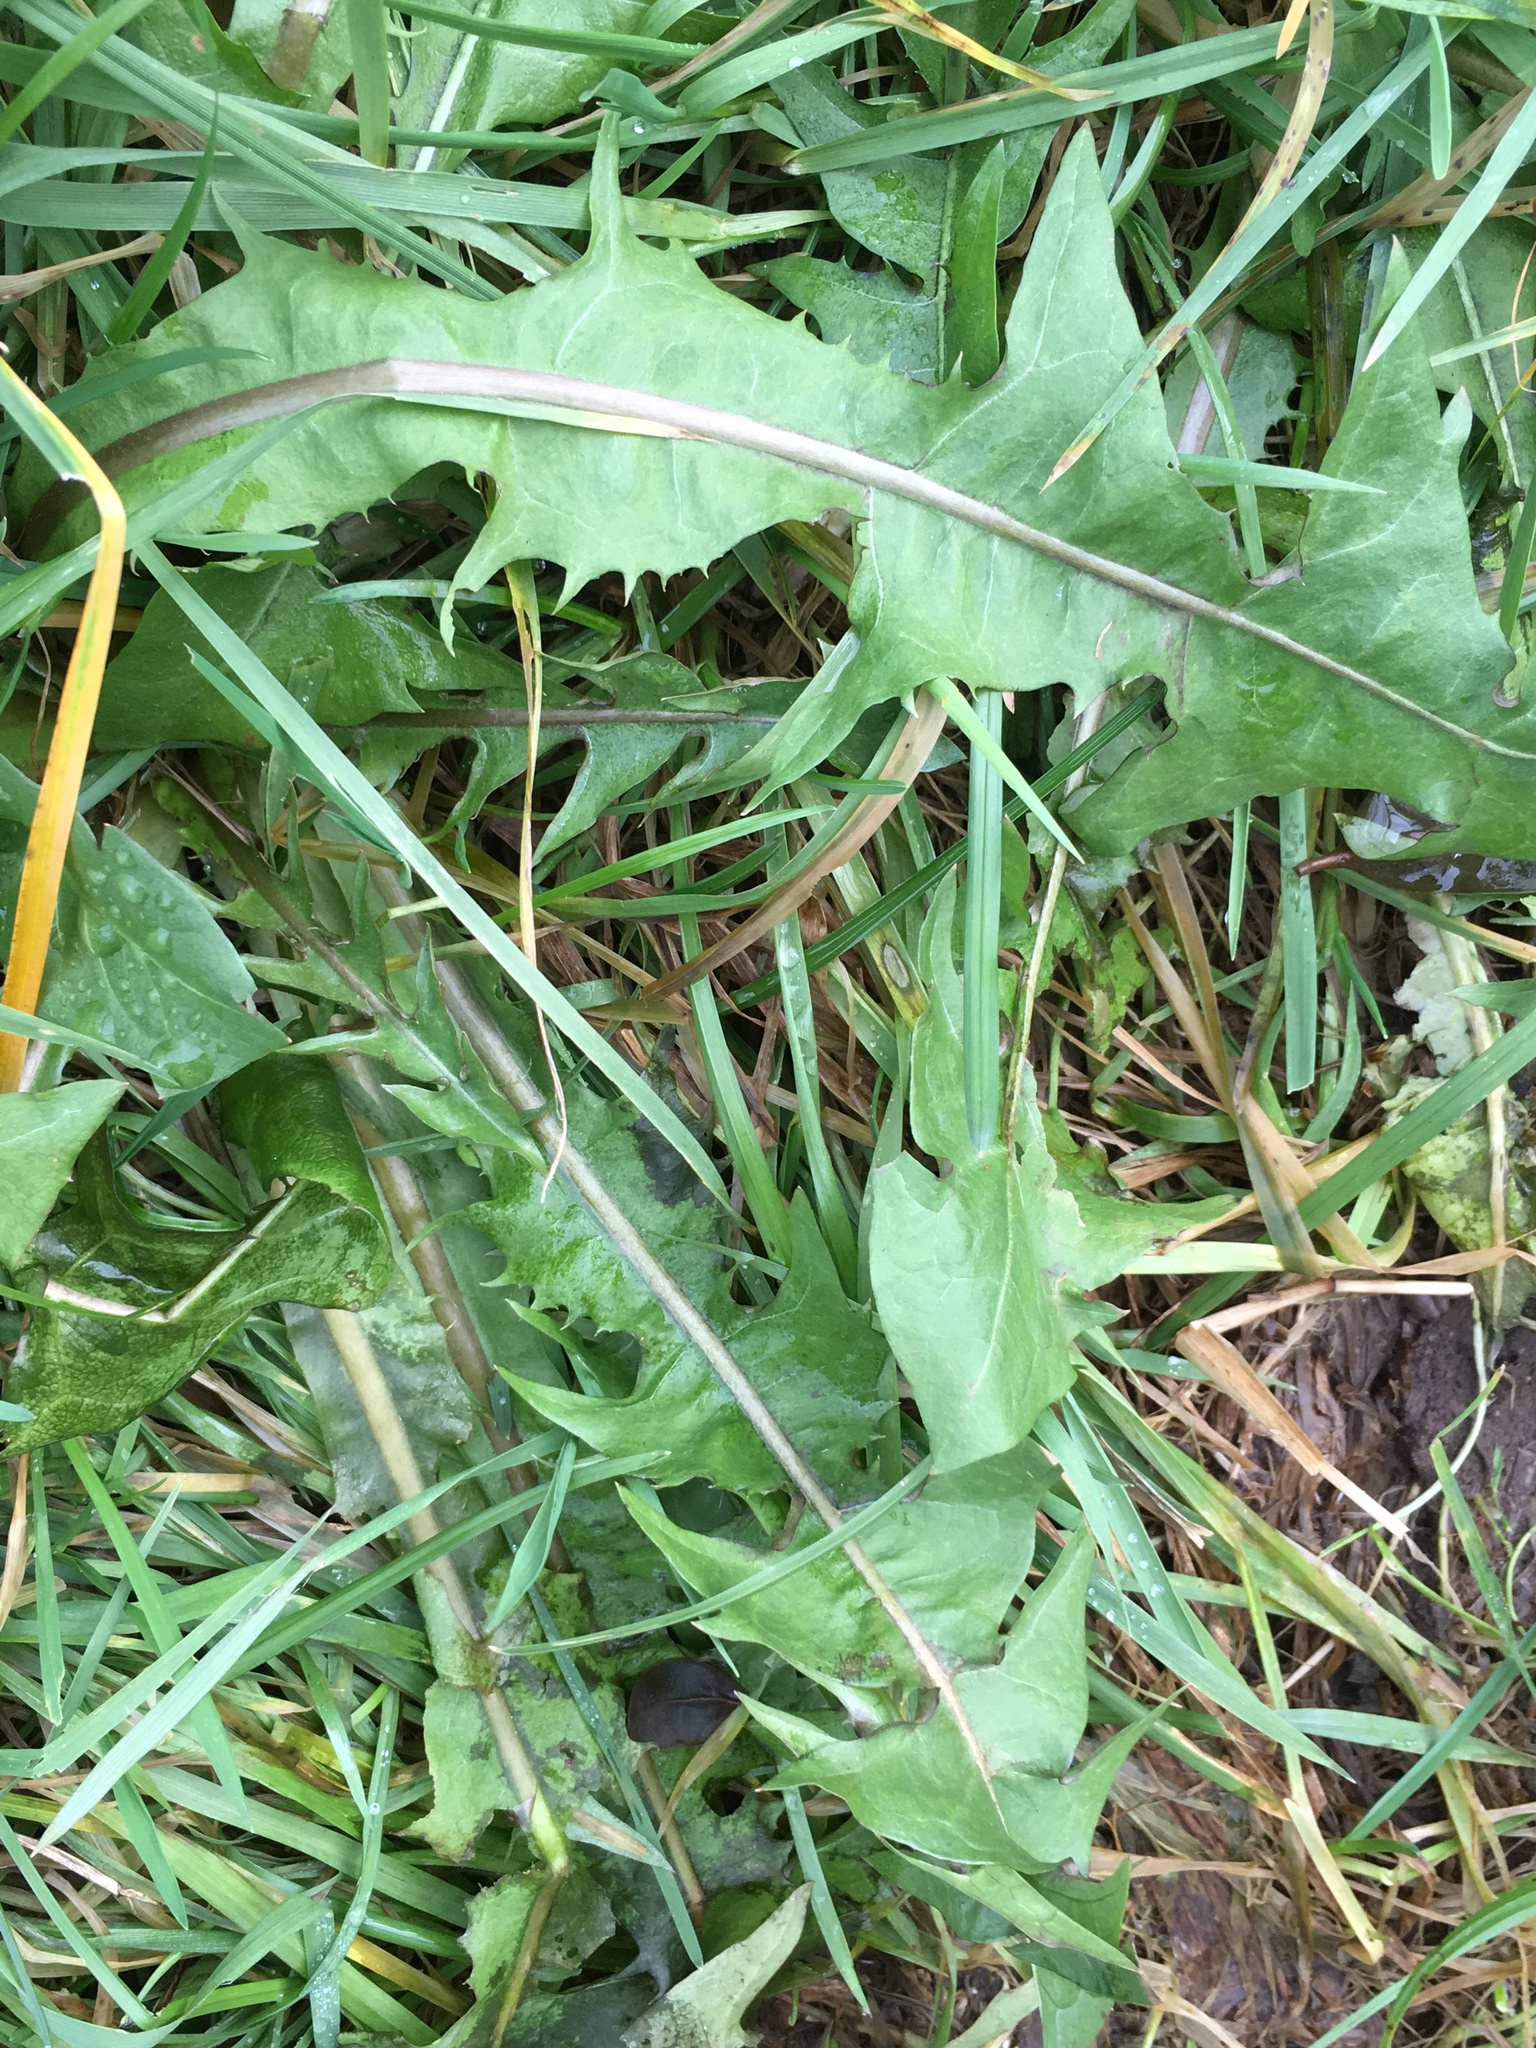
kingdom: Plantae
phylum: Tracheophyta
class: Magnoliopsida
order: Asterales
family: Asteraceae
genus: Taraxacum
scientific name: Taraxacum officinale
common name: Common dandelion
